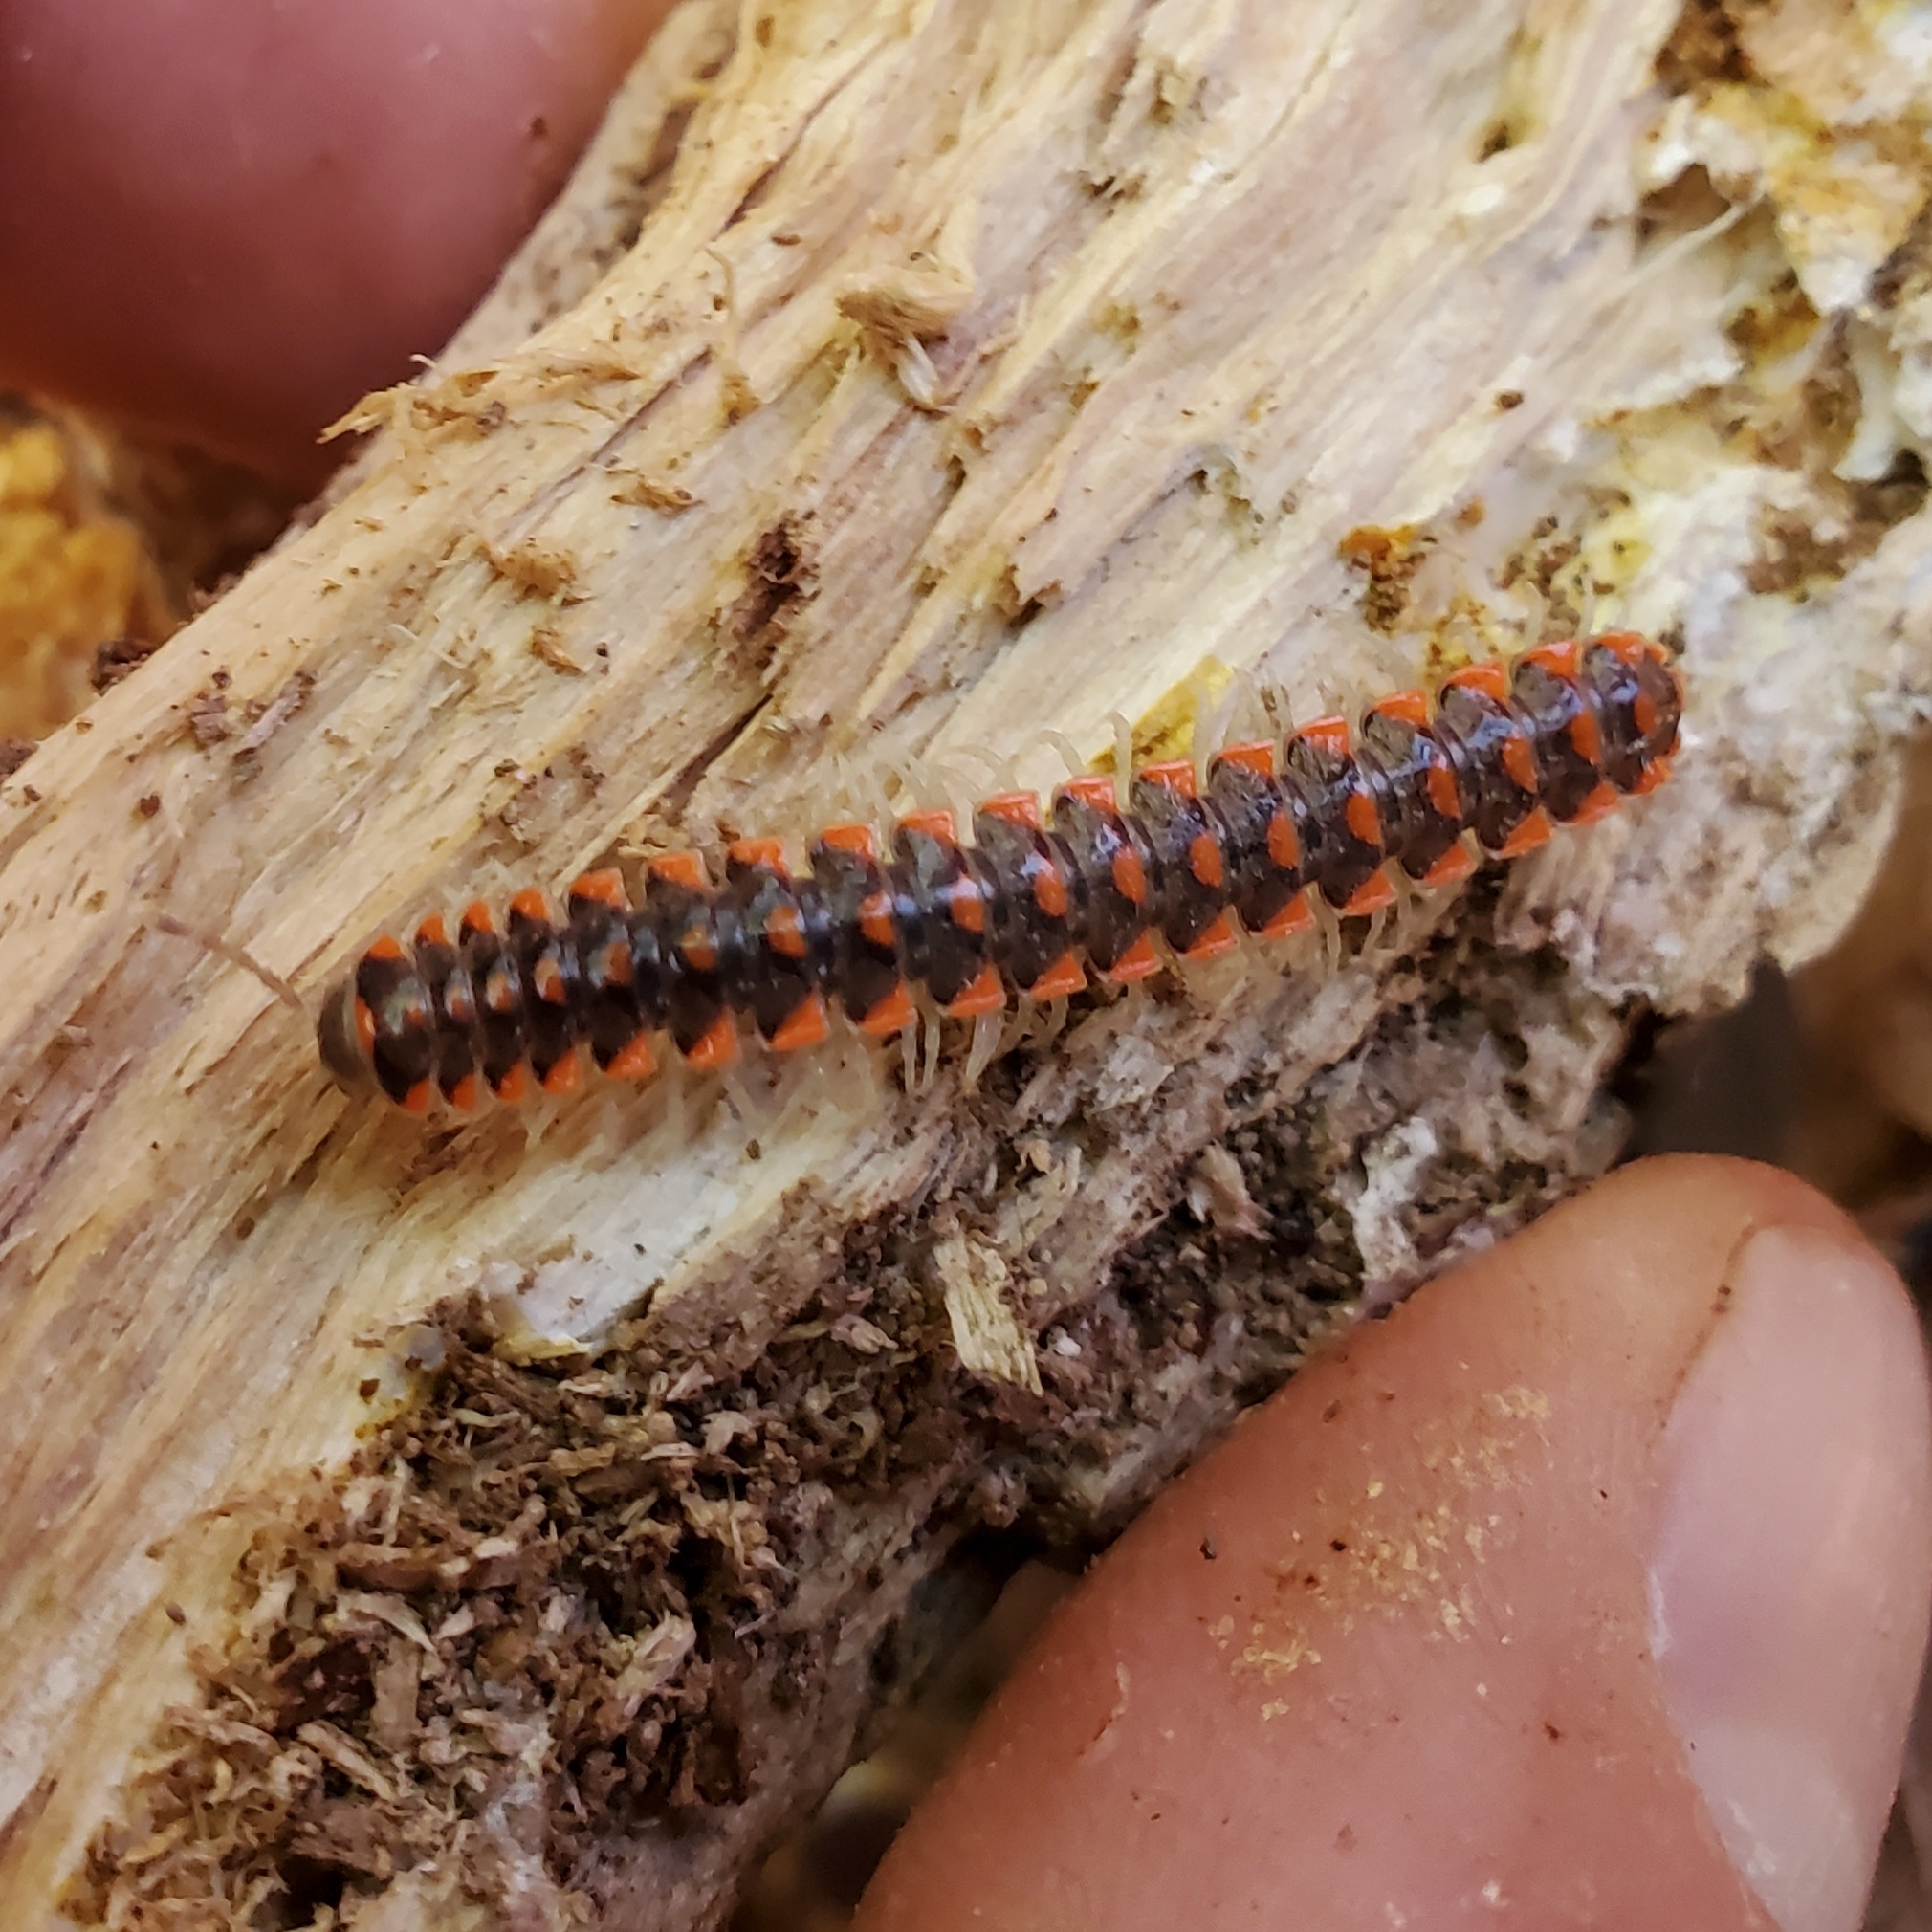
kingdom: Animalia
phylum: Arthropoda
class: Diplopoda
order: Polydesmida
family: Xystodesmidae
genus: Euryurus
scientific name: Euryurus leachii
